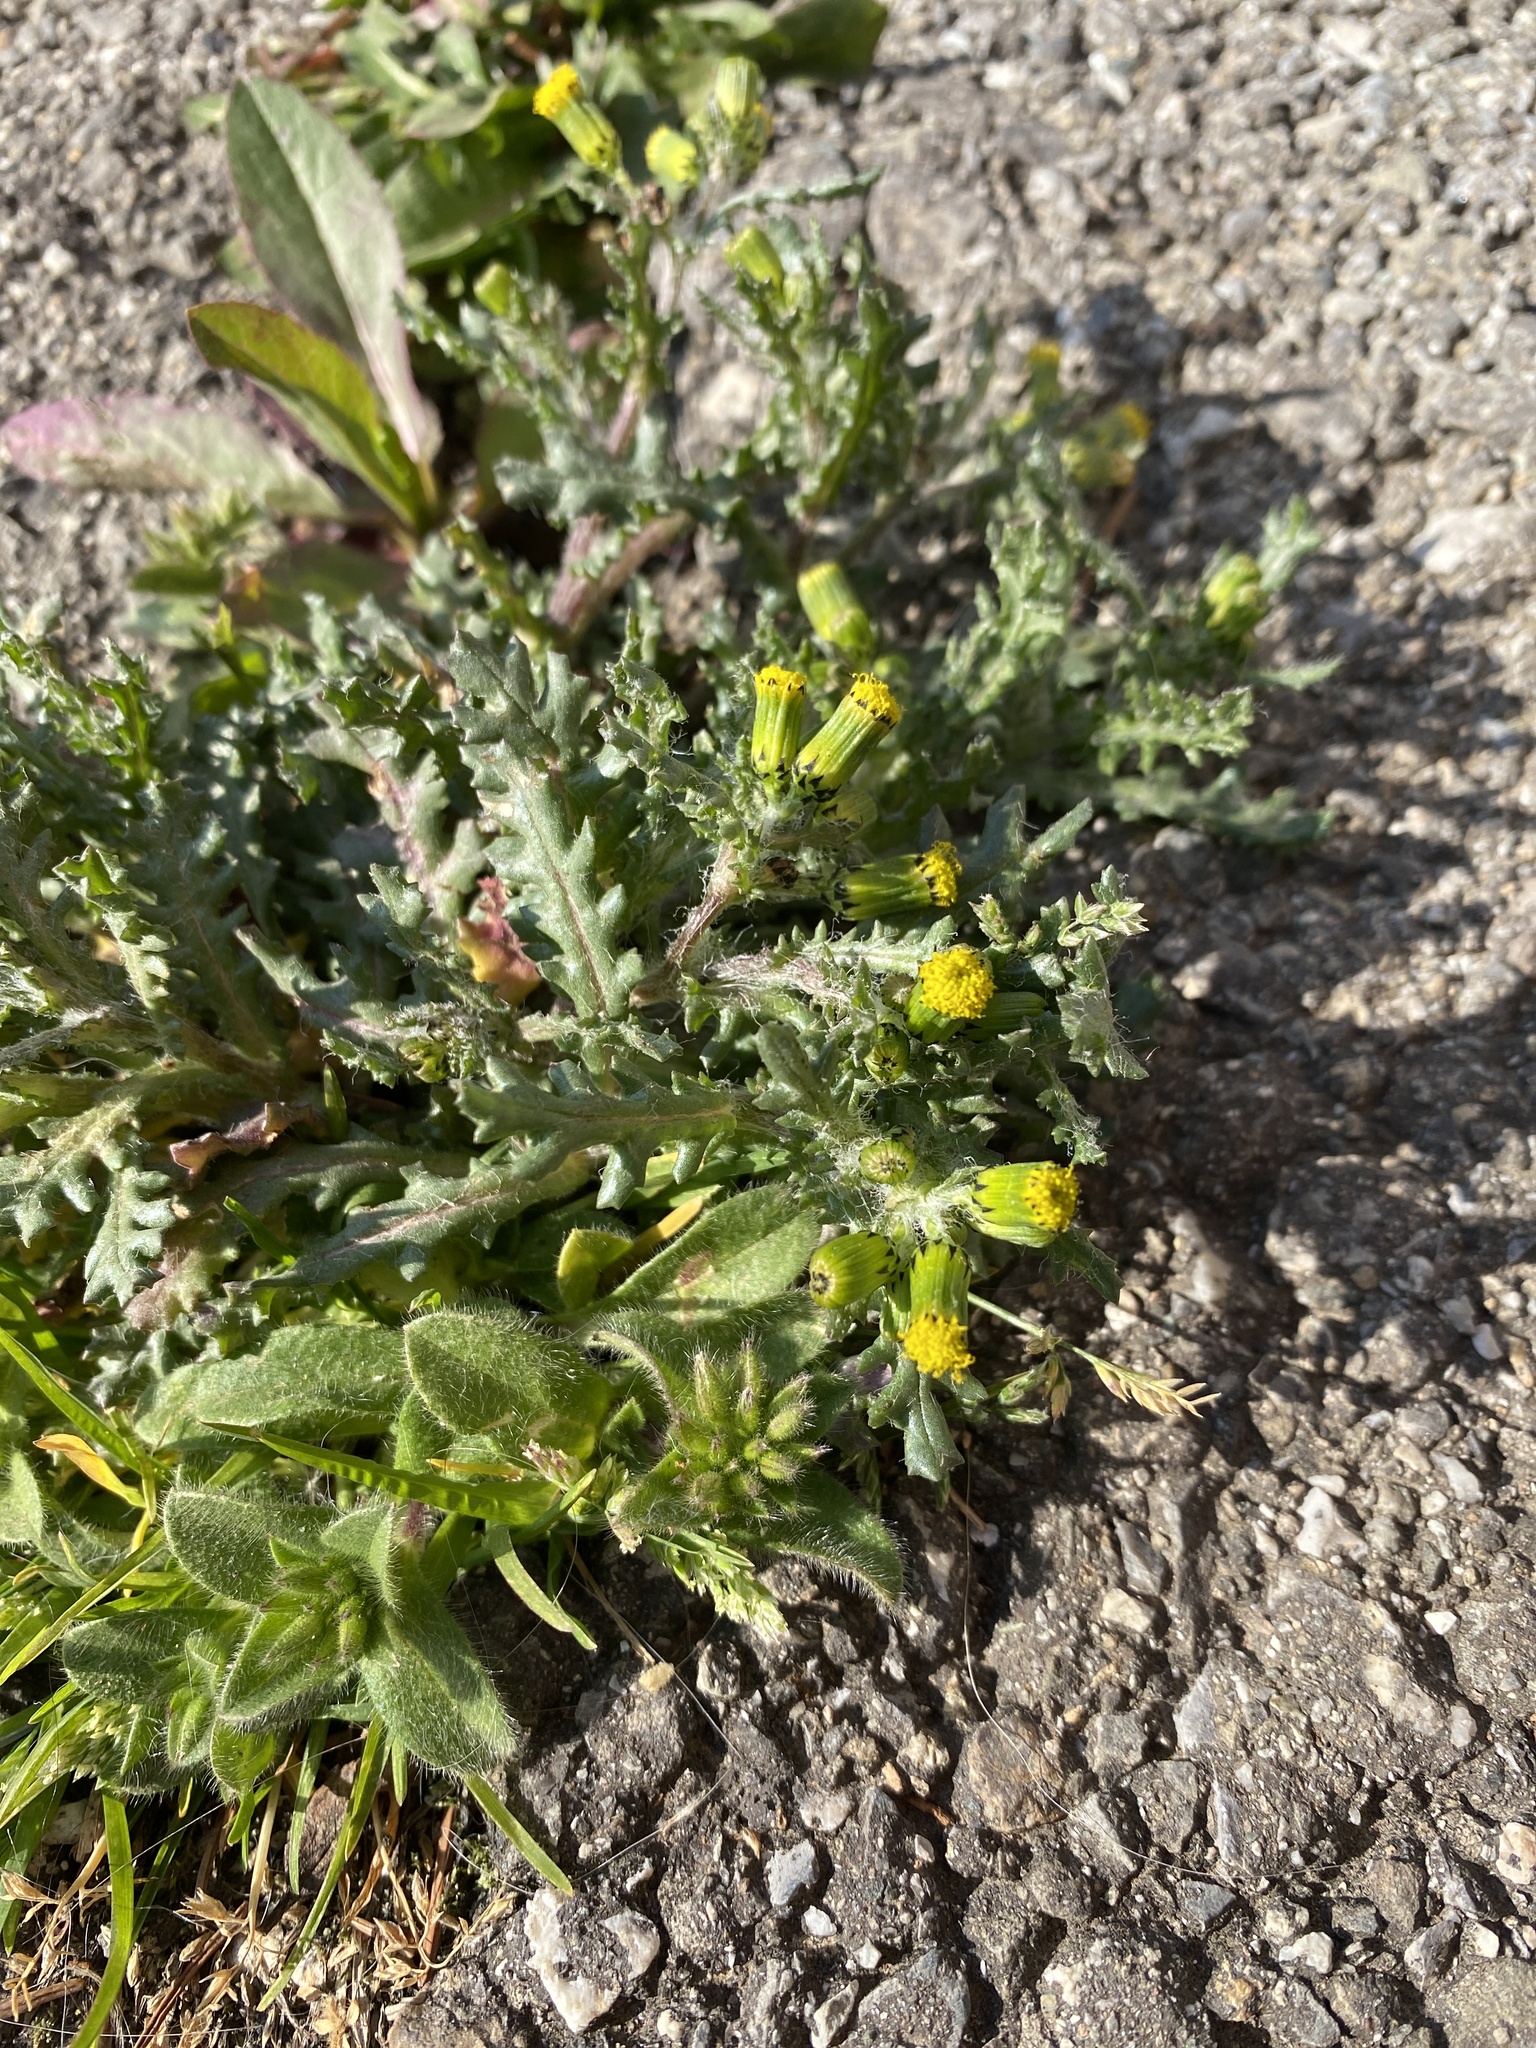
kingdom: Plantae
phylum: Tracheophyta
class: Magnoliopsida
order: Asterales
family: Asteraceae
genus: Senecio
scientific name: Senecio vulgaris
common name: Old-man-in-the-spring
